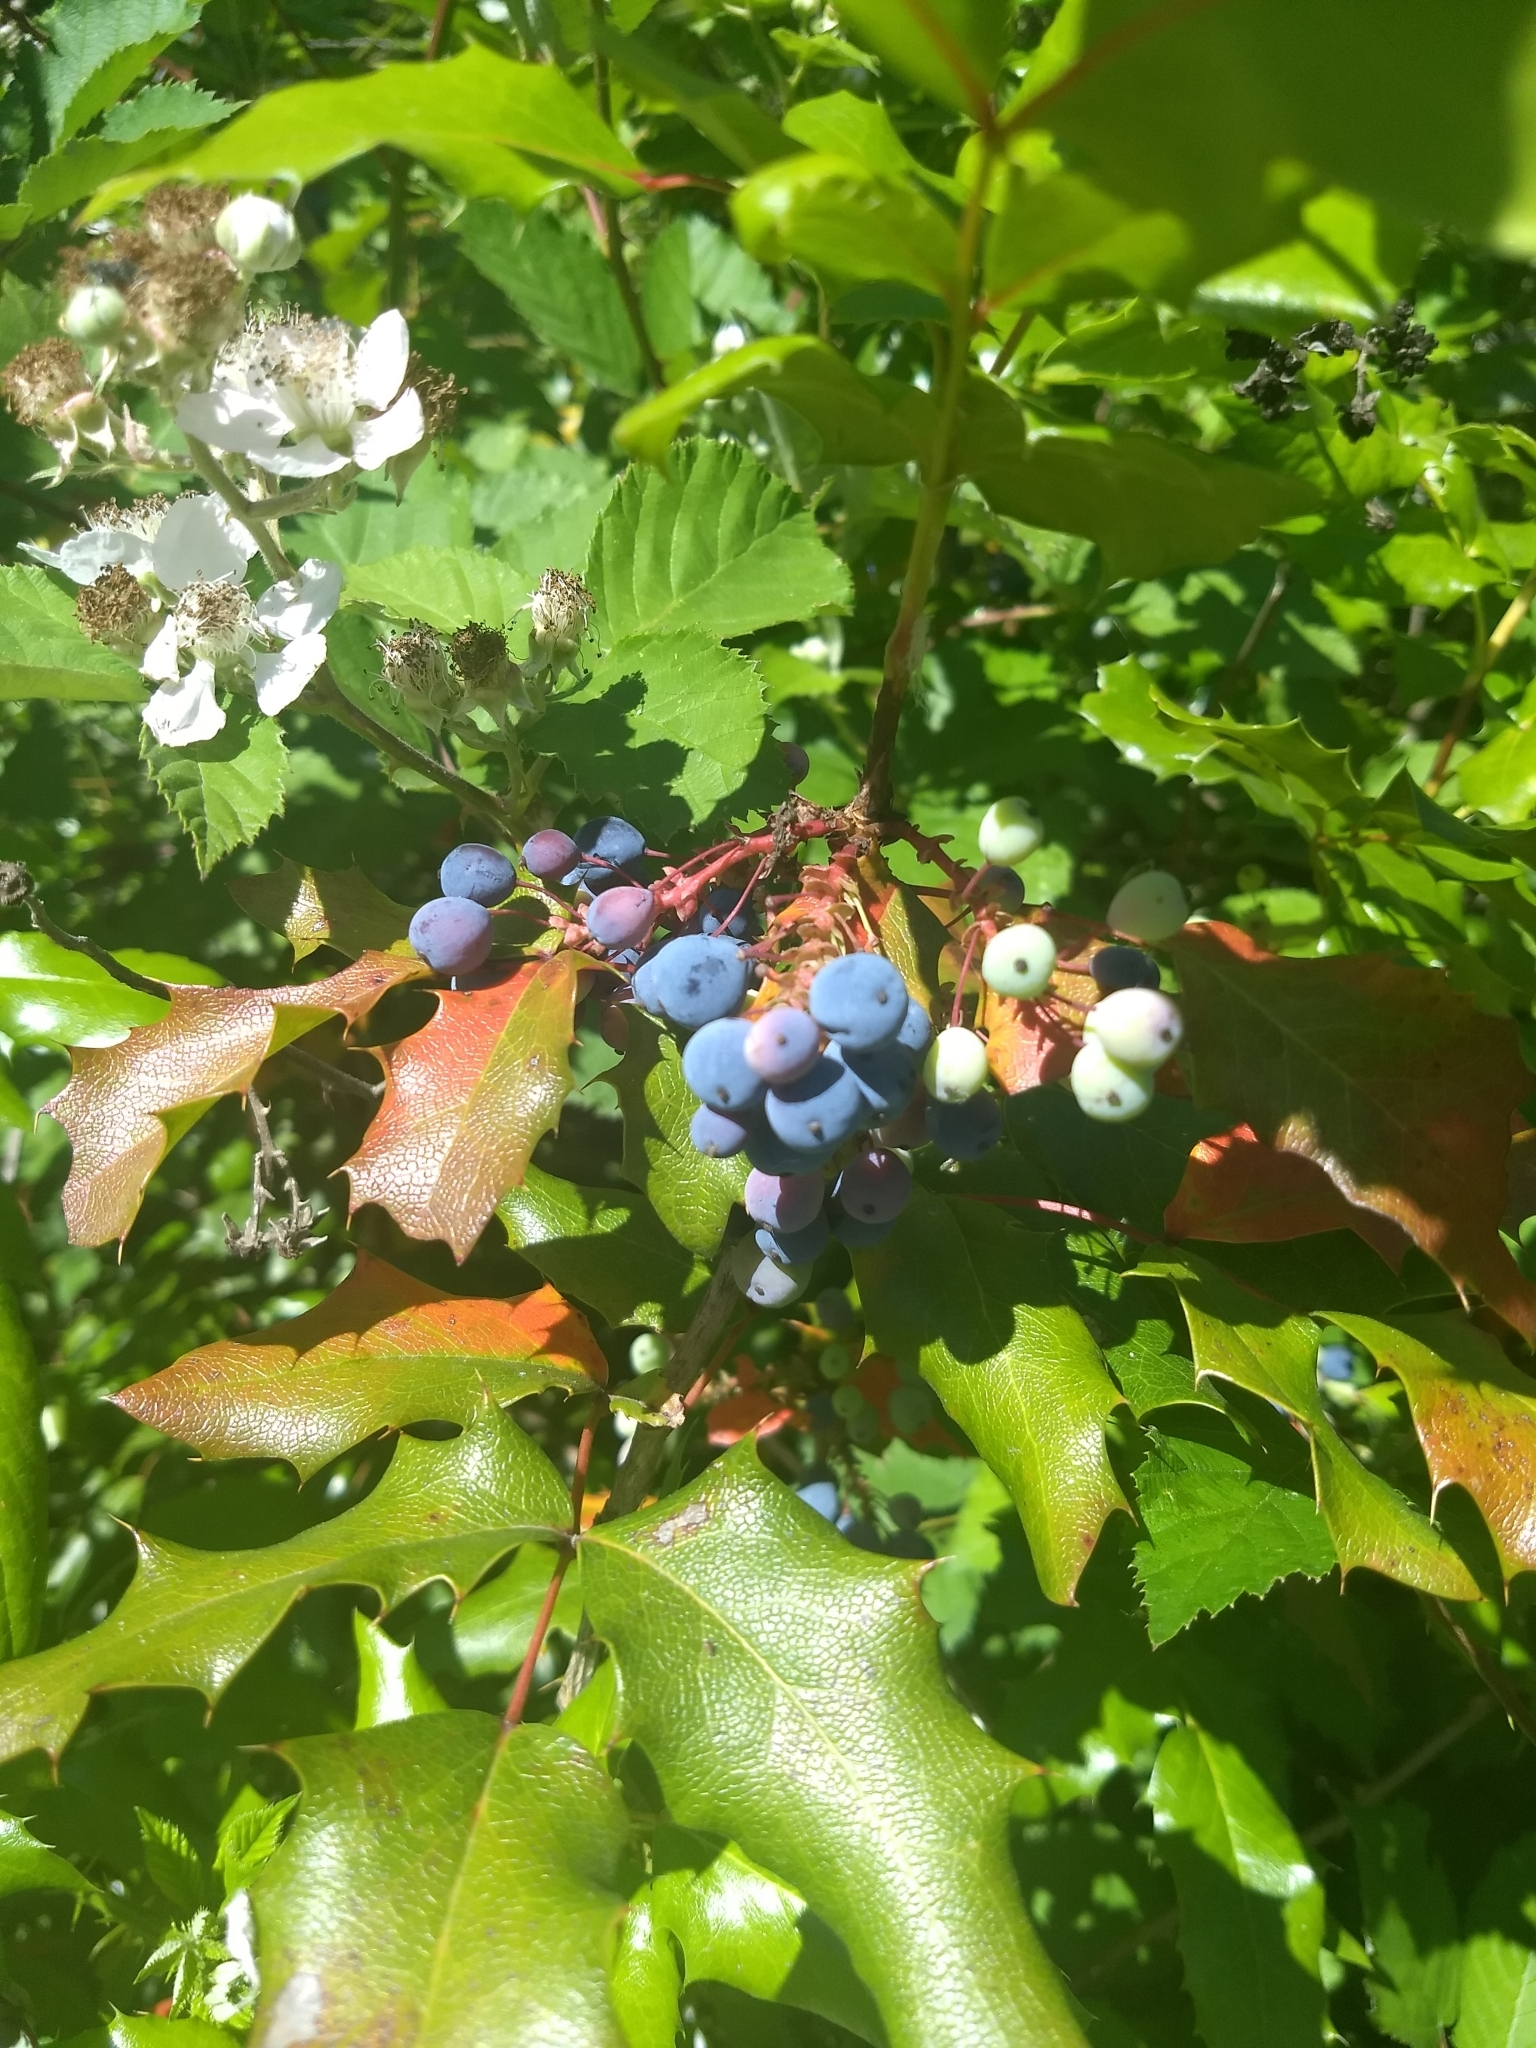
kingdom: Plantae
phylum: Tracheophyta
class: Magnoliopsida
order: Ranunculales
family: Berberidaceae
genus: Mahonia
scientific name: Mahonia aquifolium
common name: Oregon-grape
